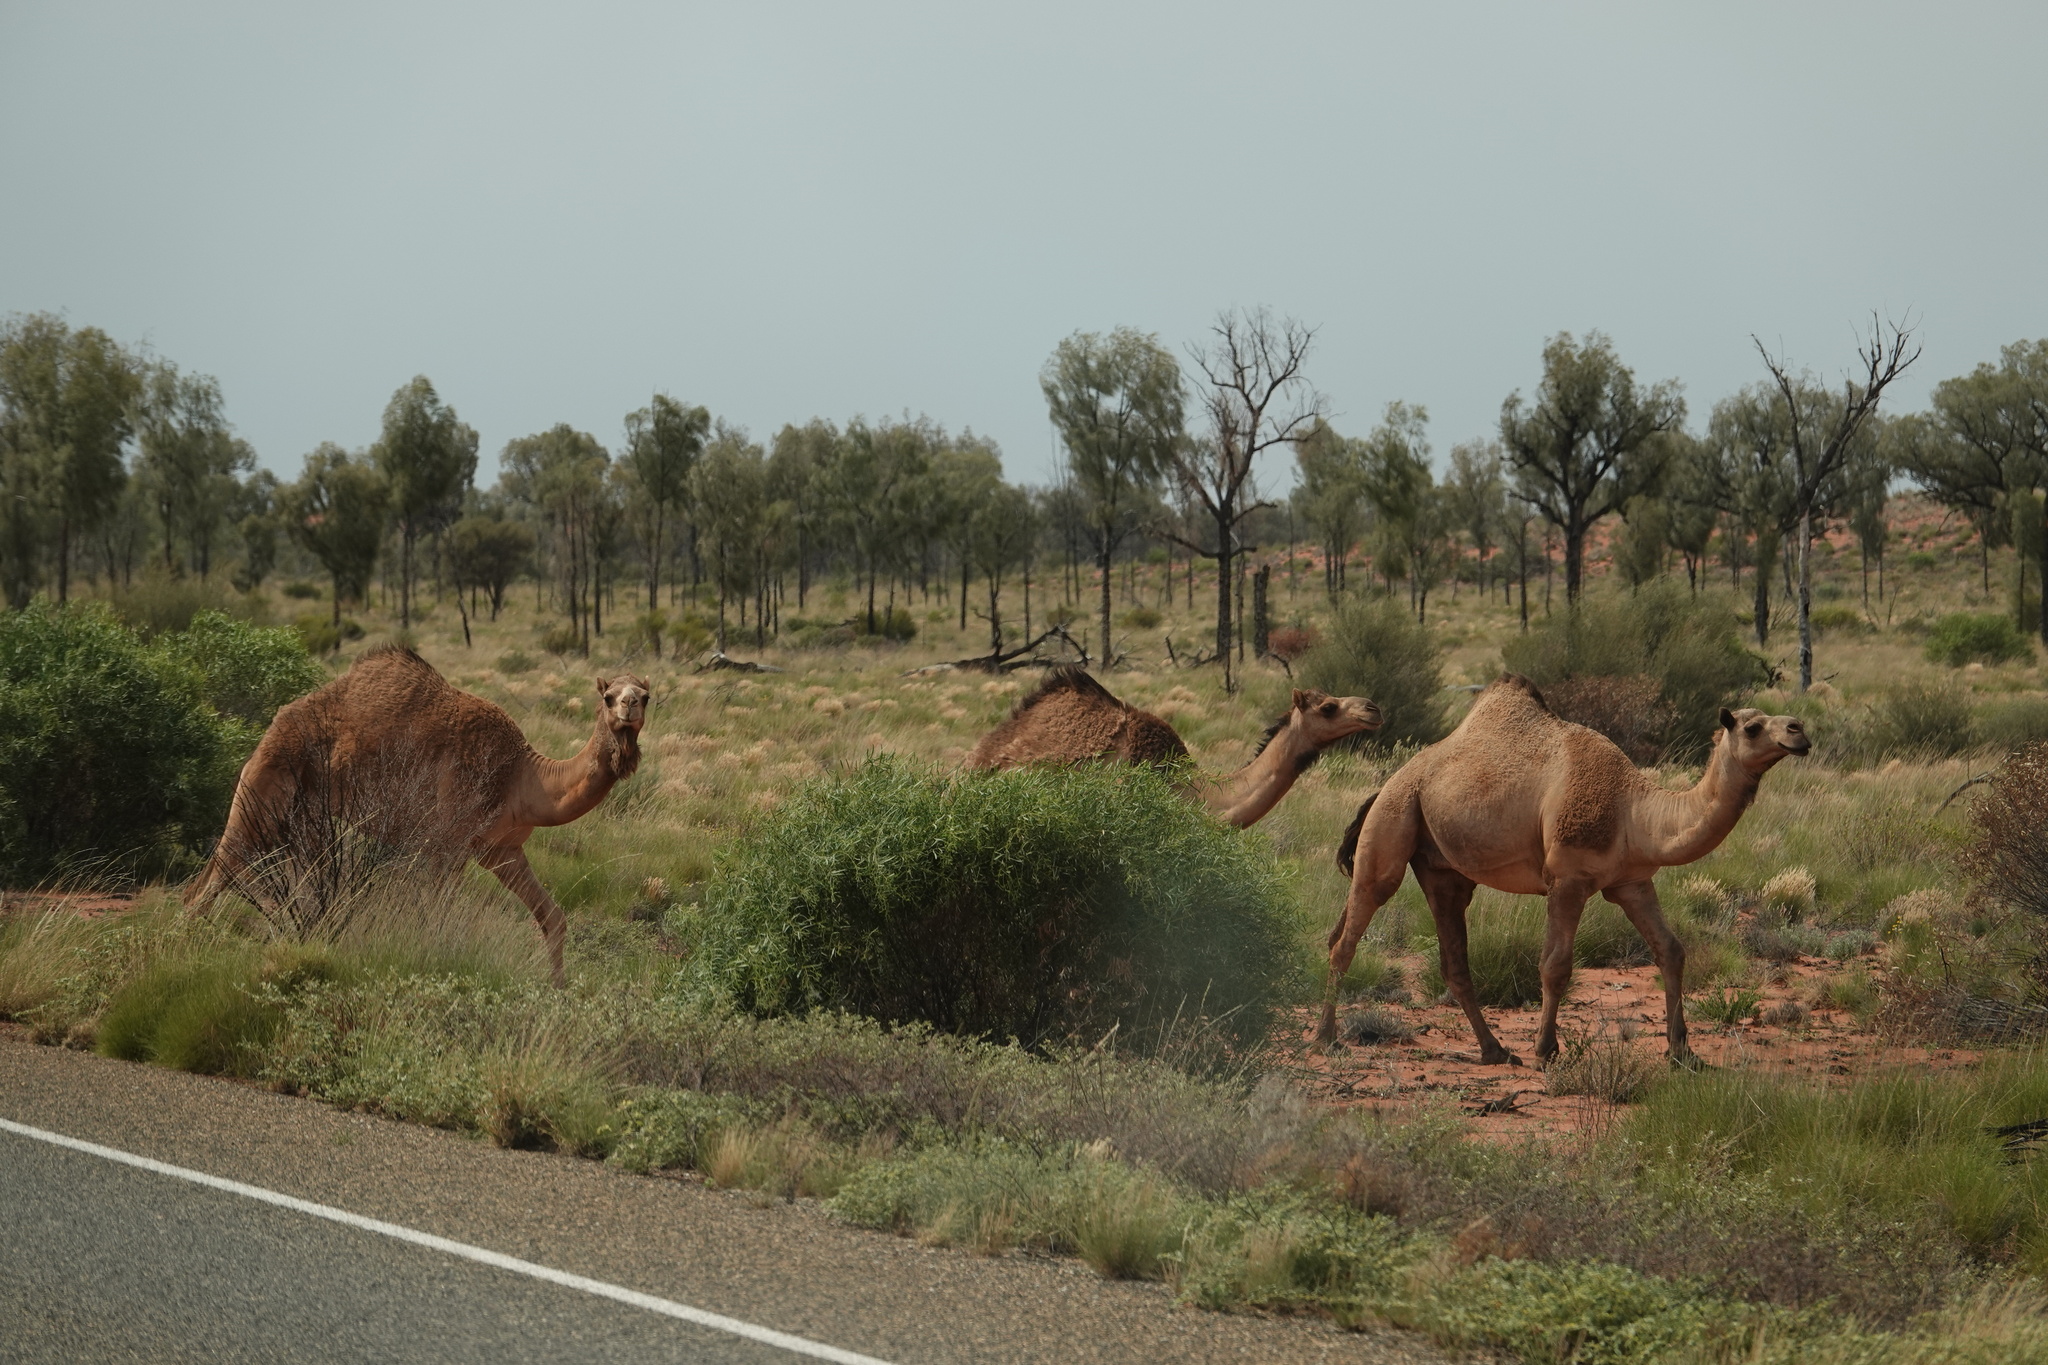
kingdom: Animalia
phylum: Chordata
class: Mammalia
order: Artiodactyla
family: Camelidae
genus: Camelus
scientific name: Camelus dromedarius
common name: One-humped camel
